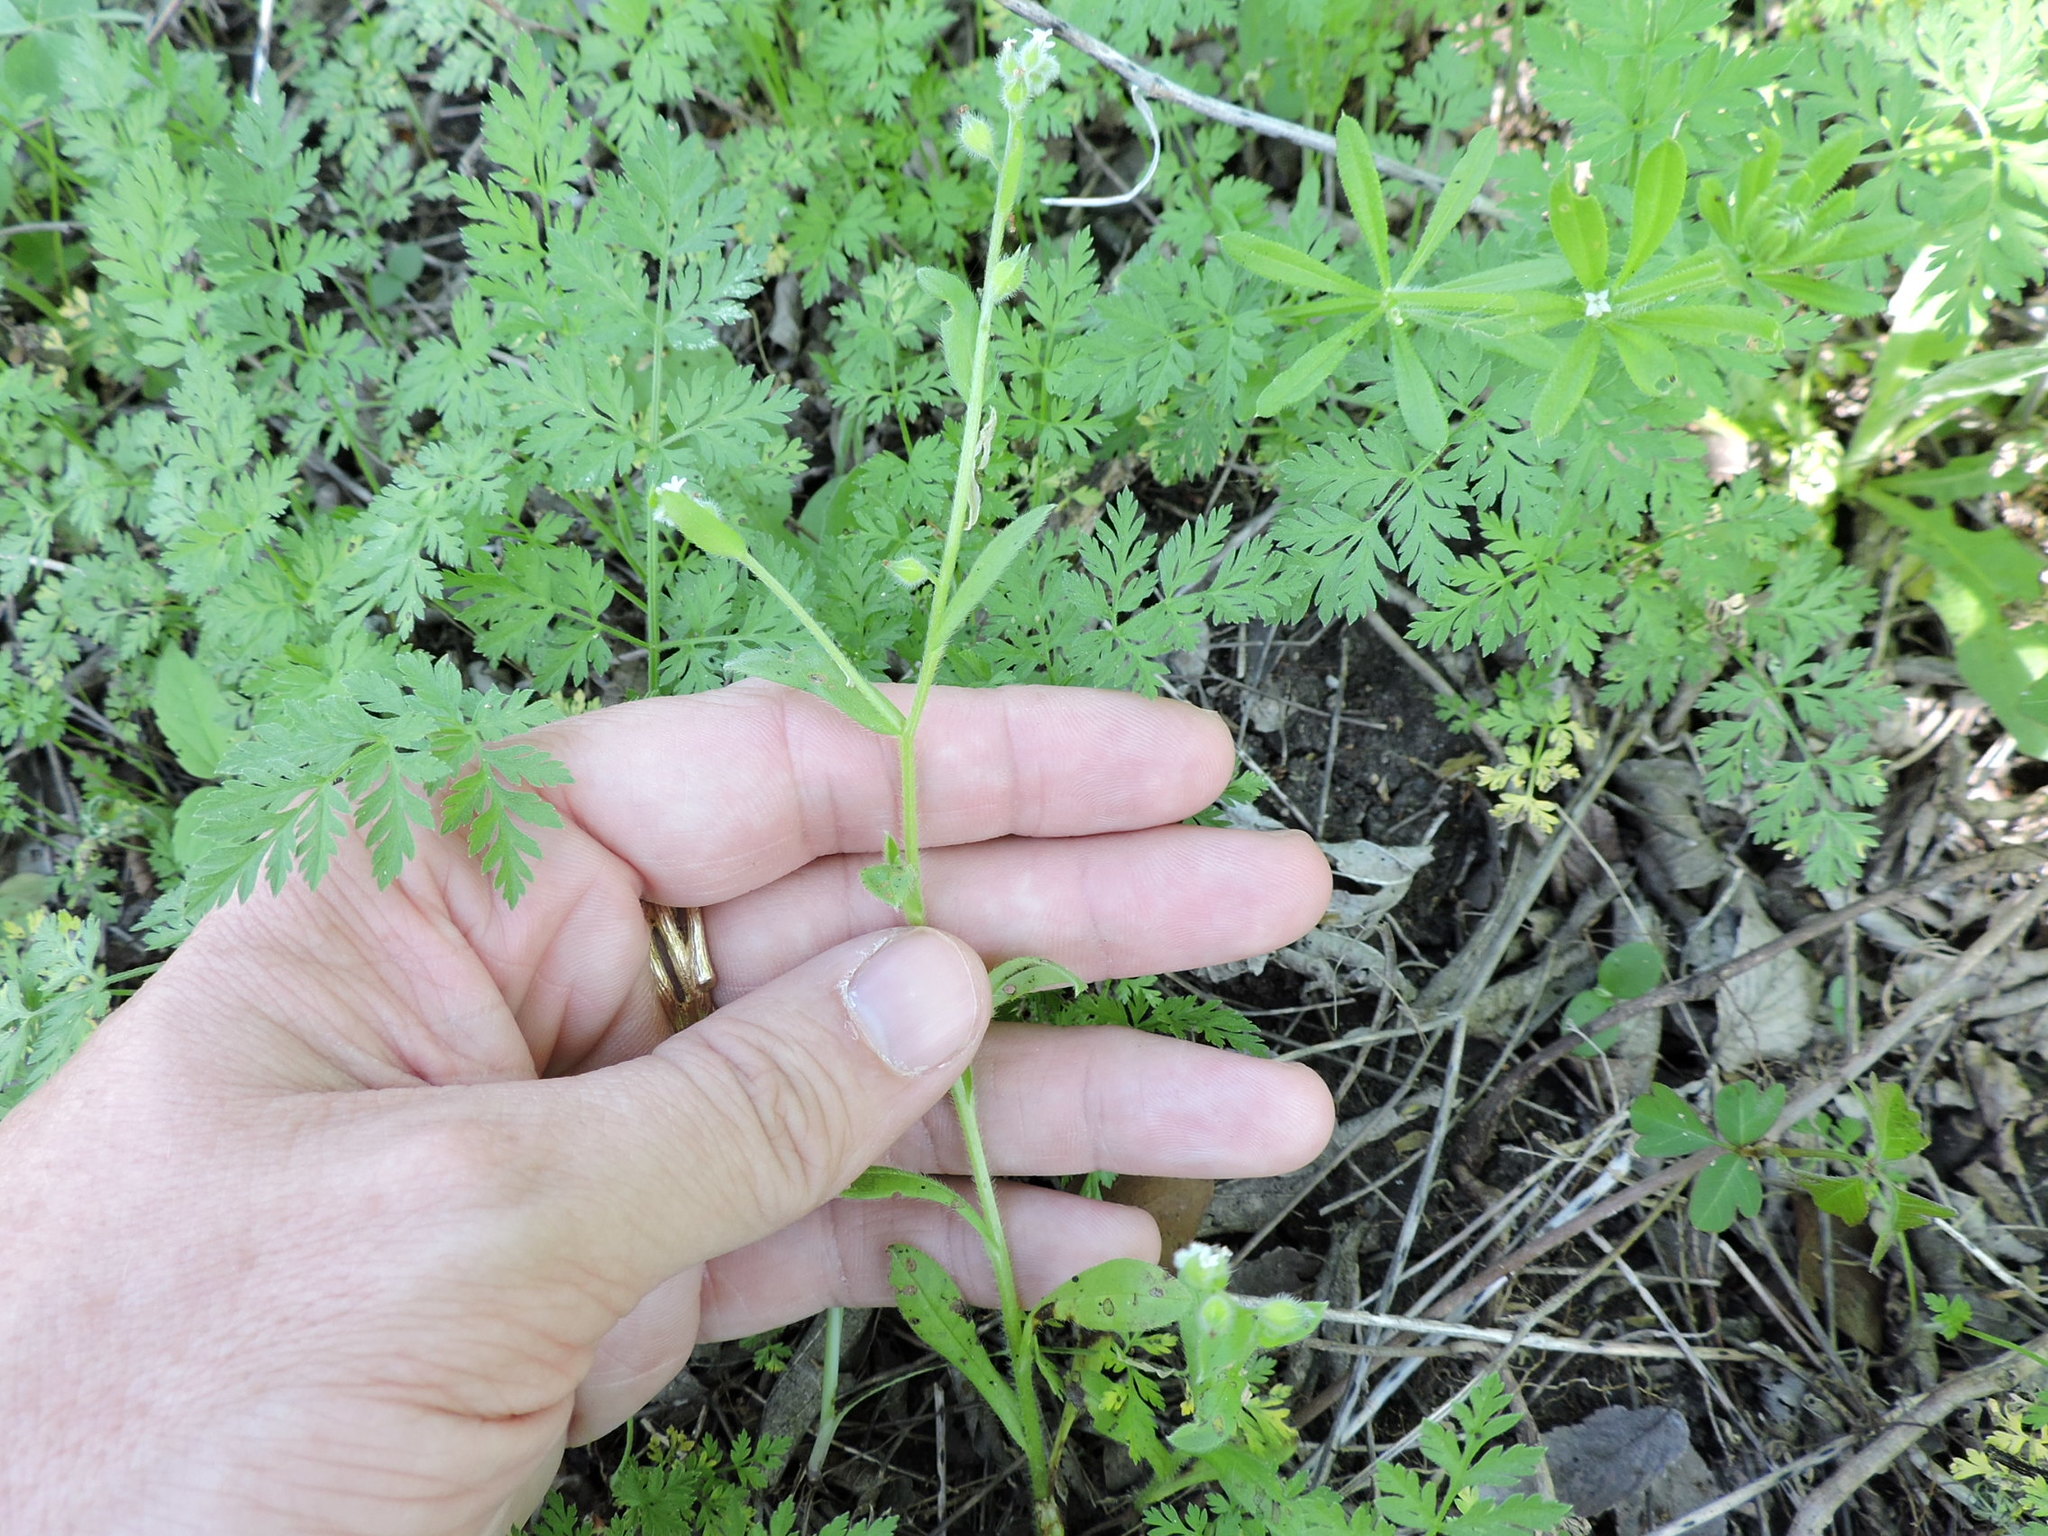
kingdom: Plantae
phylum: Tracheophyta
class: Magnoliopsida
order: Boraginales
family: Boraginaceae
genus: Myosotis
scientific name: Myosotis macrosperma
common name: Large-seed forget-me-not
